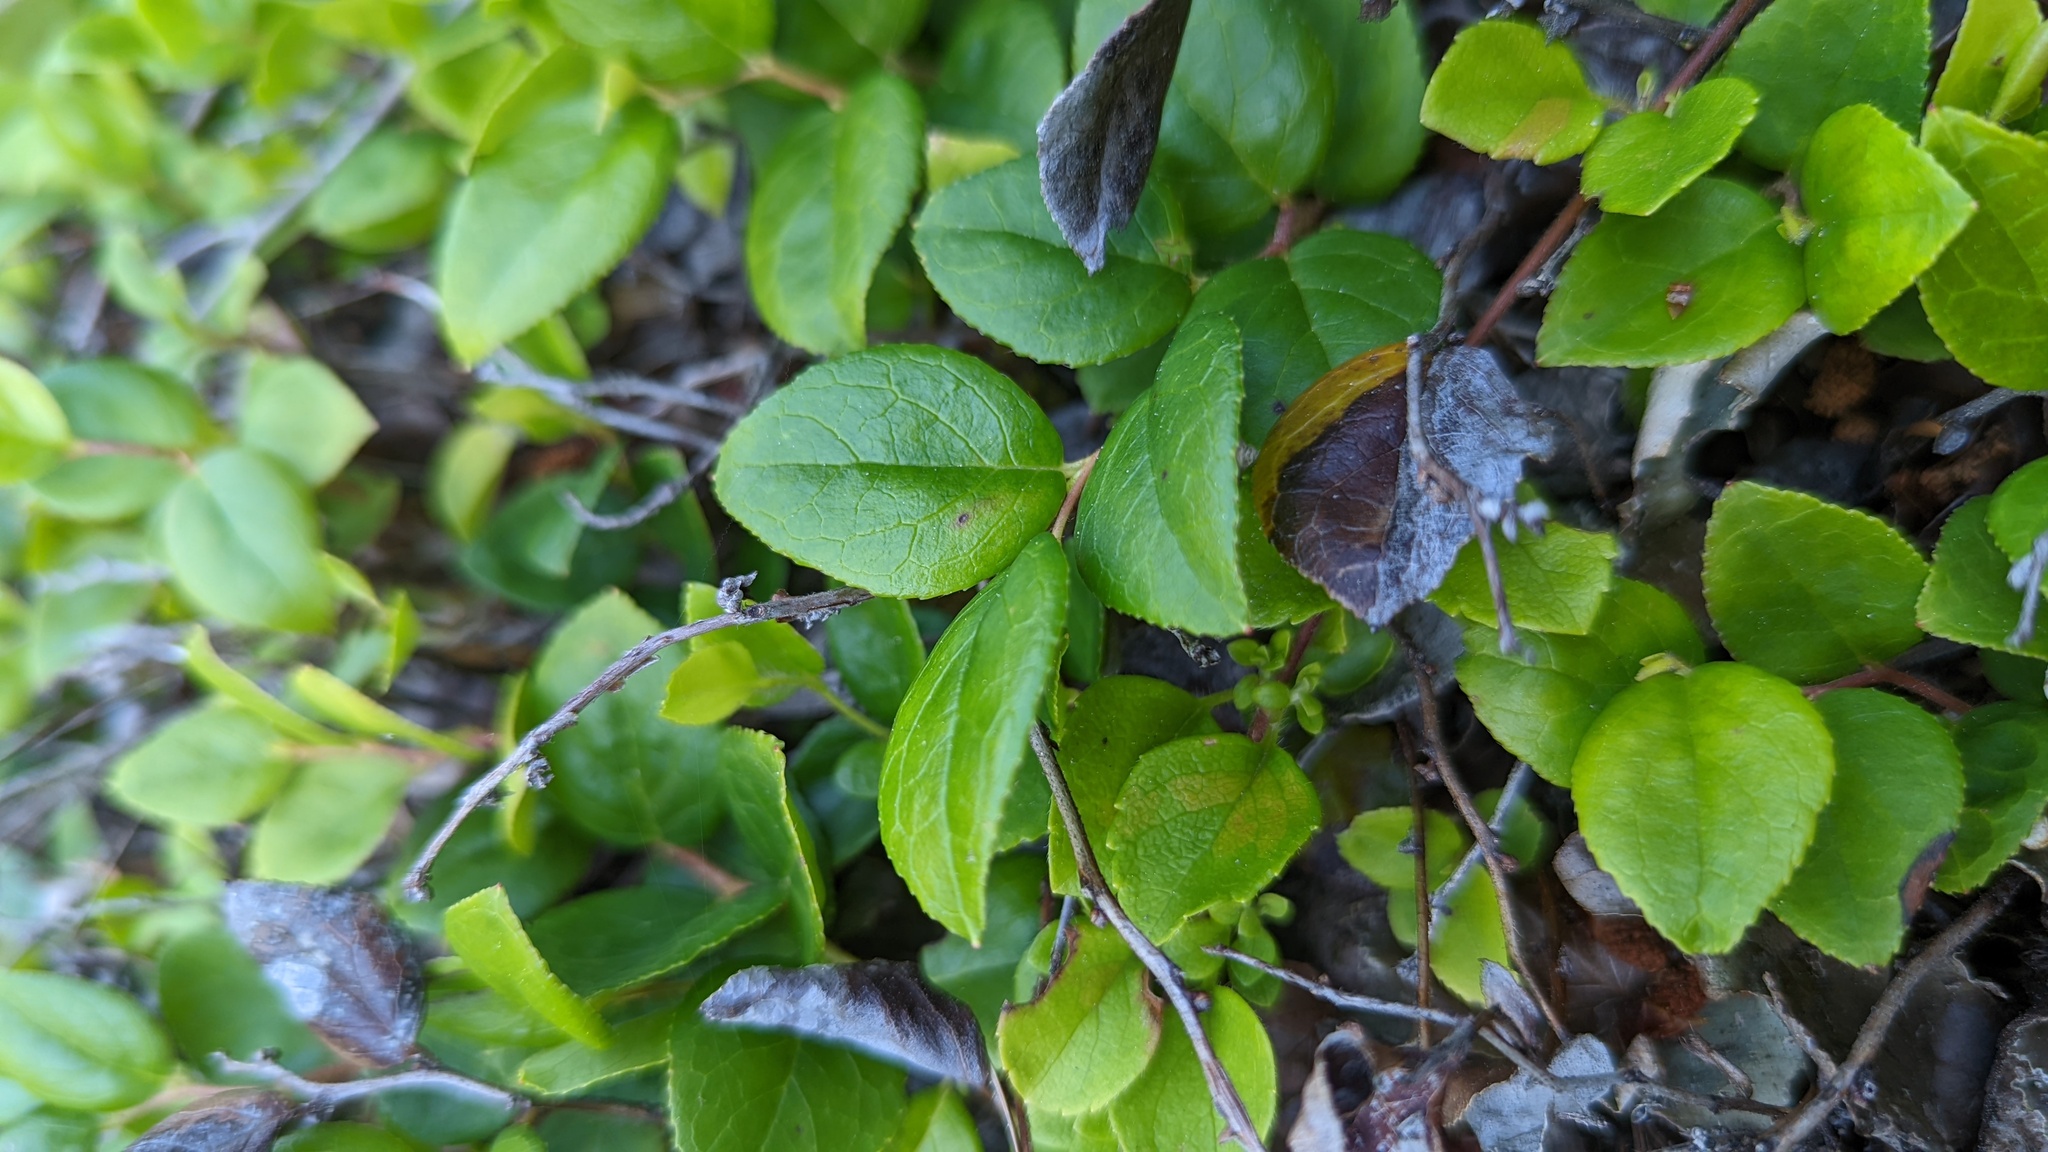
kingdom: Plantae
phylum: Tracheophyta
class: Magnoliopsida
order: Ericales
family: Ericaceae
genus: Gaultheria
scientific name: Gaultheria ovatifolia
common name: Oregon wintergreen
